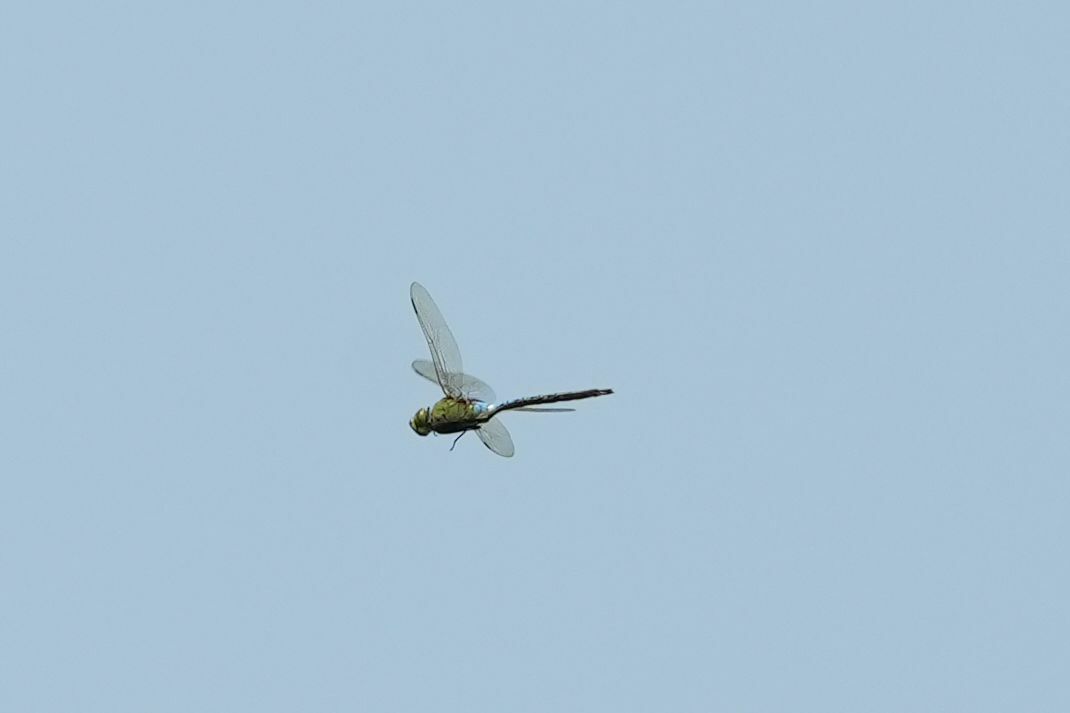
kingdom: Animalia
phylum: Arthropoda
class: Insecta
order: Odonata
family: Aeshnidae
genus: Anax
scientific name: Anax junius
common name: Common green darner
